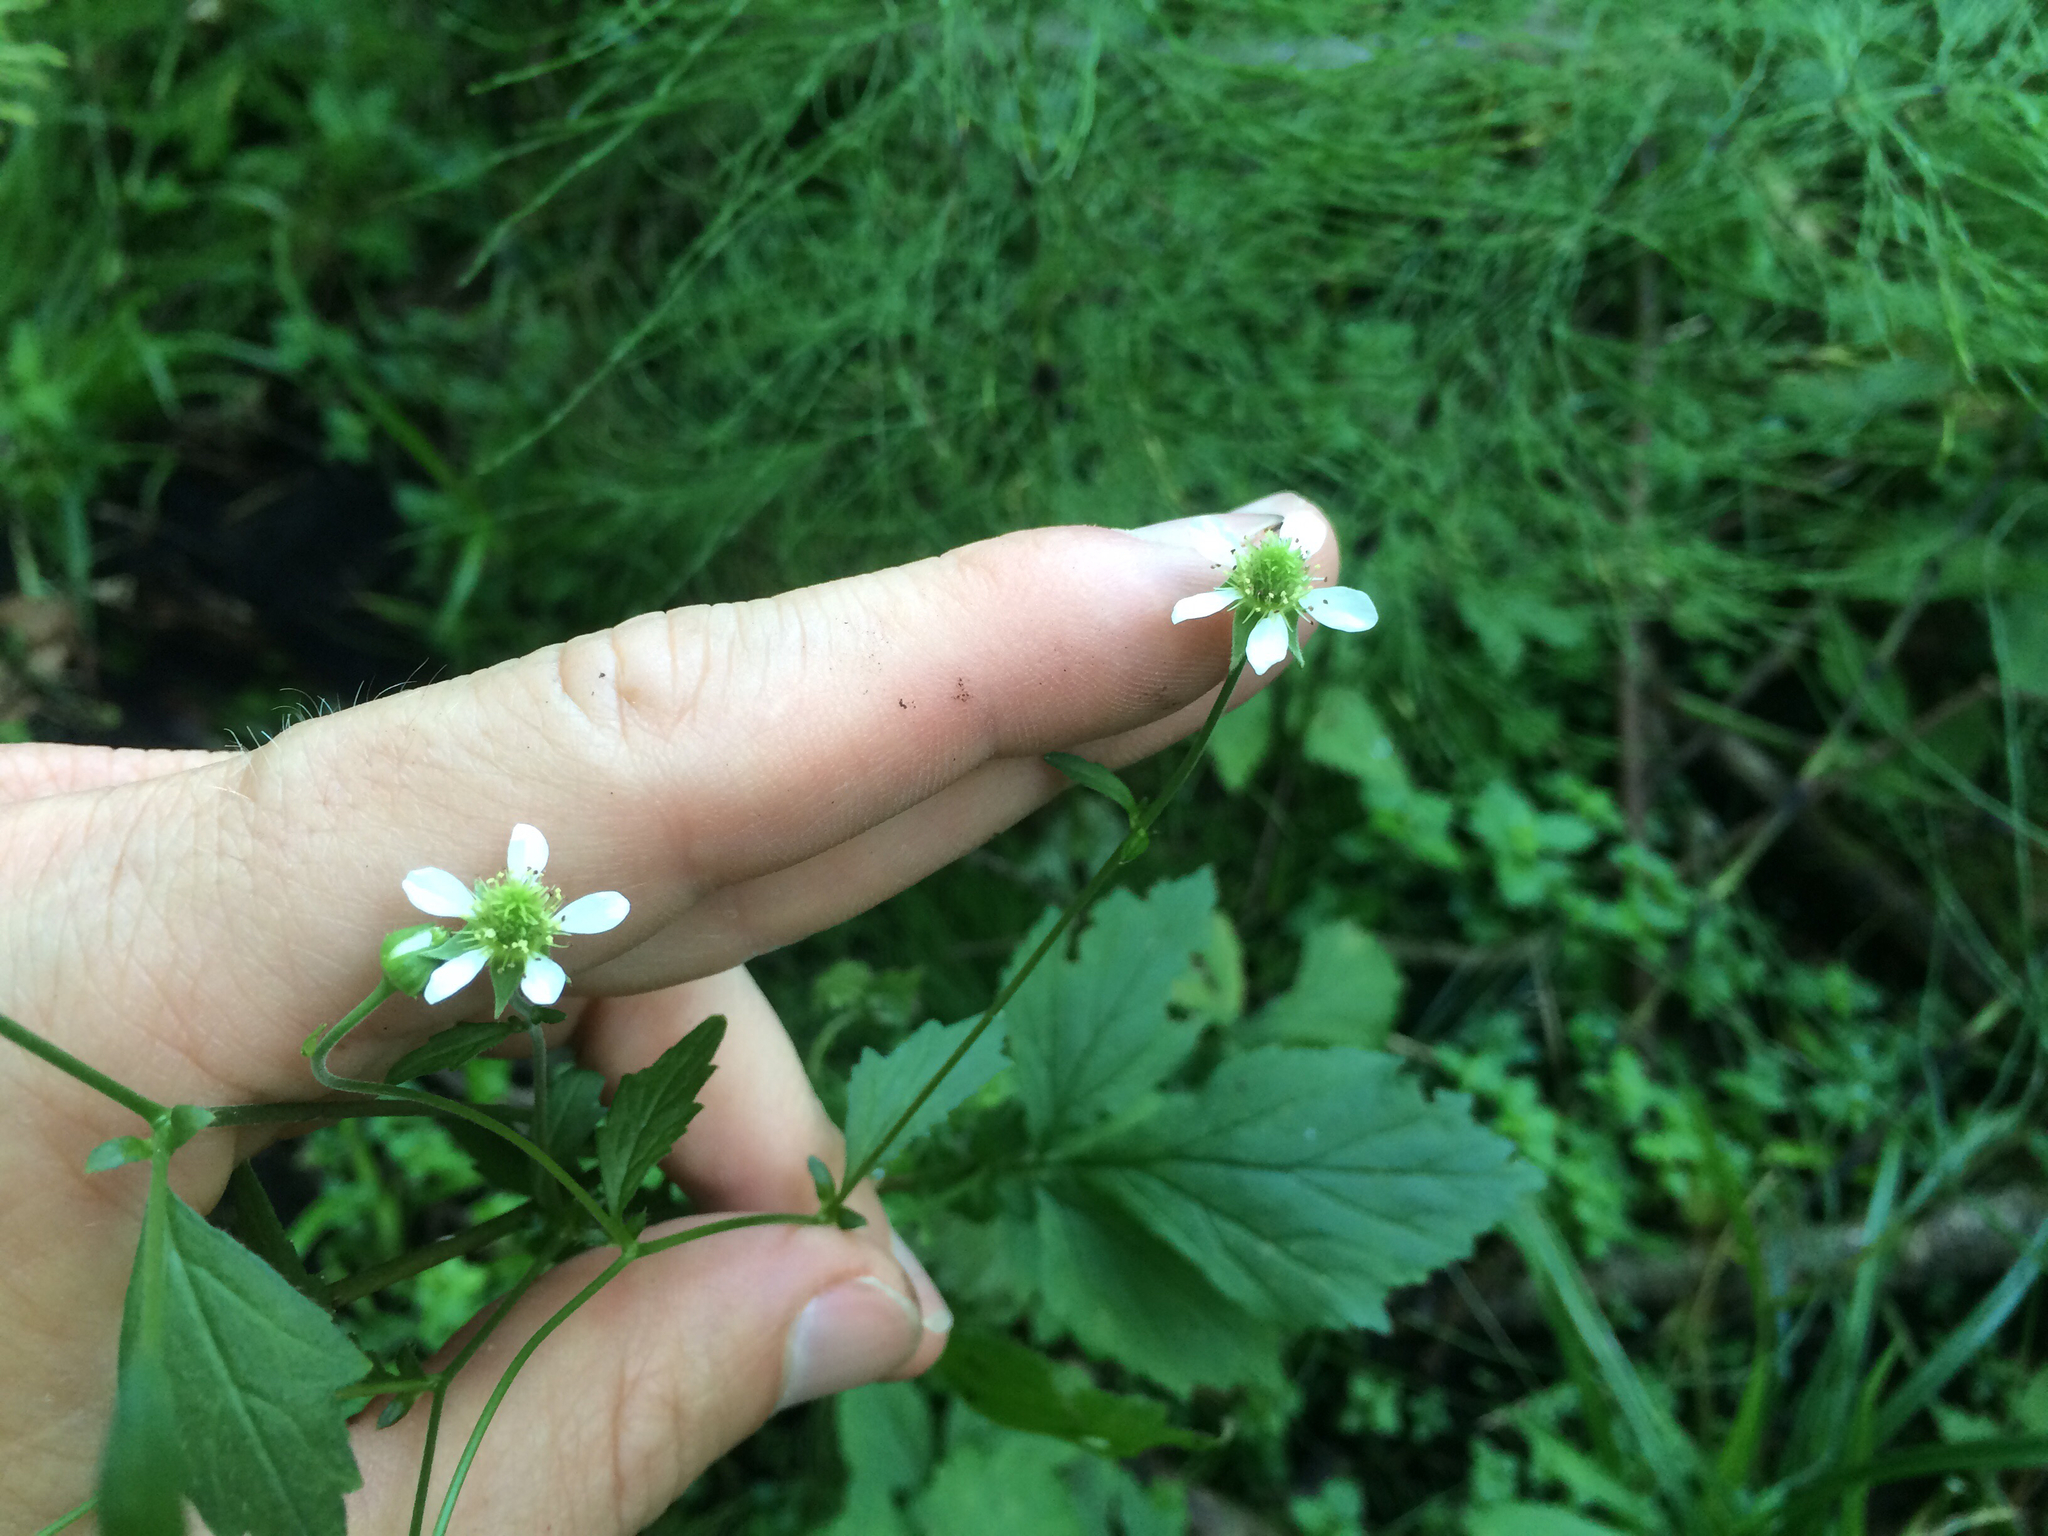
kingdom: Plantae
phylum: Tracheophyta
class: Magnoliopsida
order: Rosales
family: Rosaceae
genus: Geum
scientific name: Geum canadense
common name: White avens
